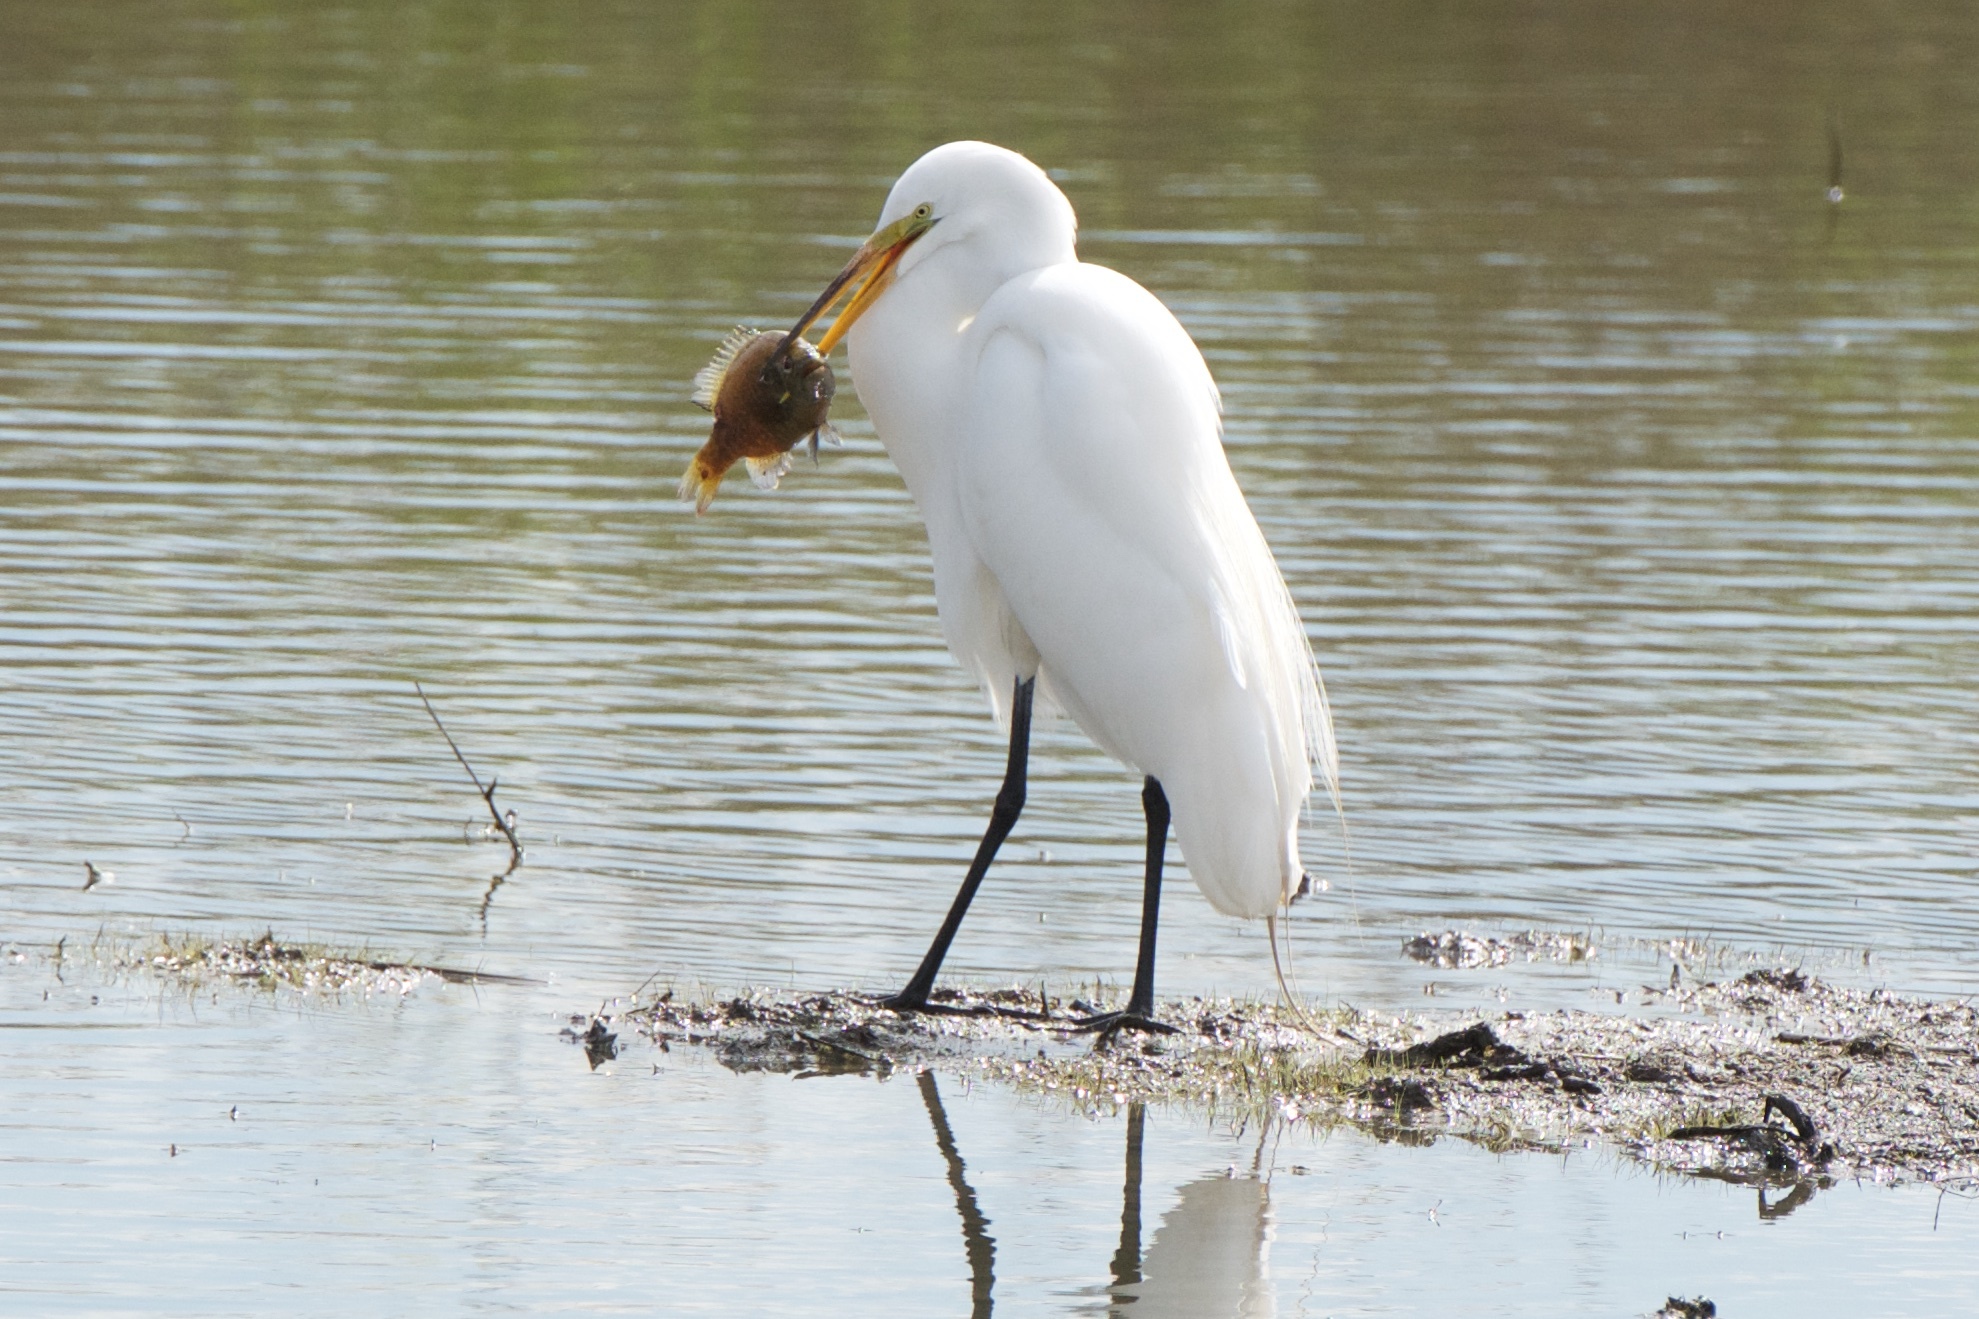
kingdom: Animalia
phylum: Chordata
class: Aves
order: Pelecaniformes
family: Ardeidae
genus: Ardea
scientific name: Ardea alba
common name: Great egret
